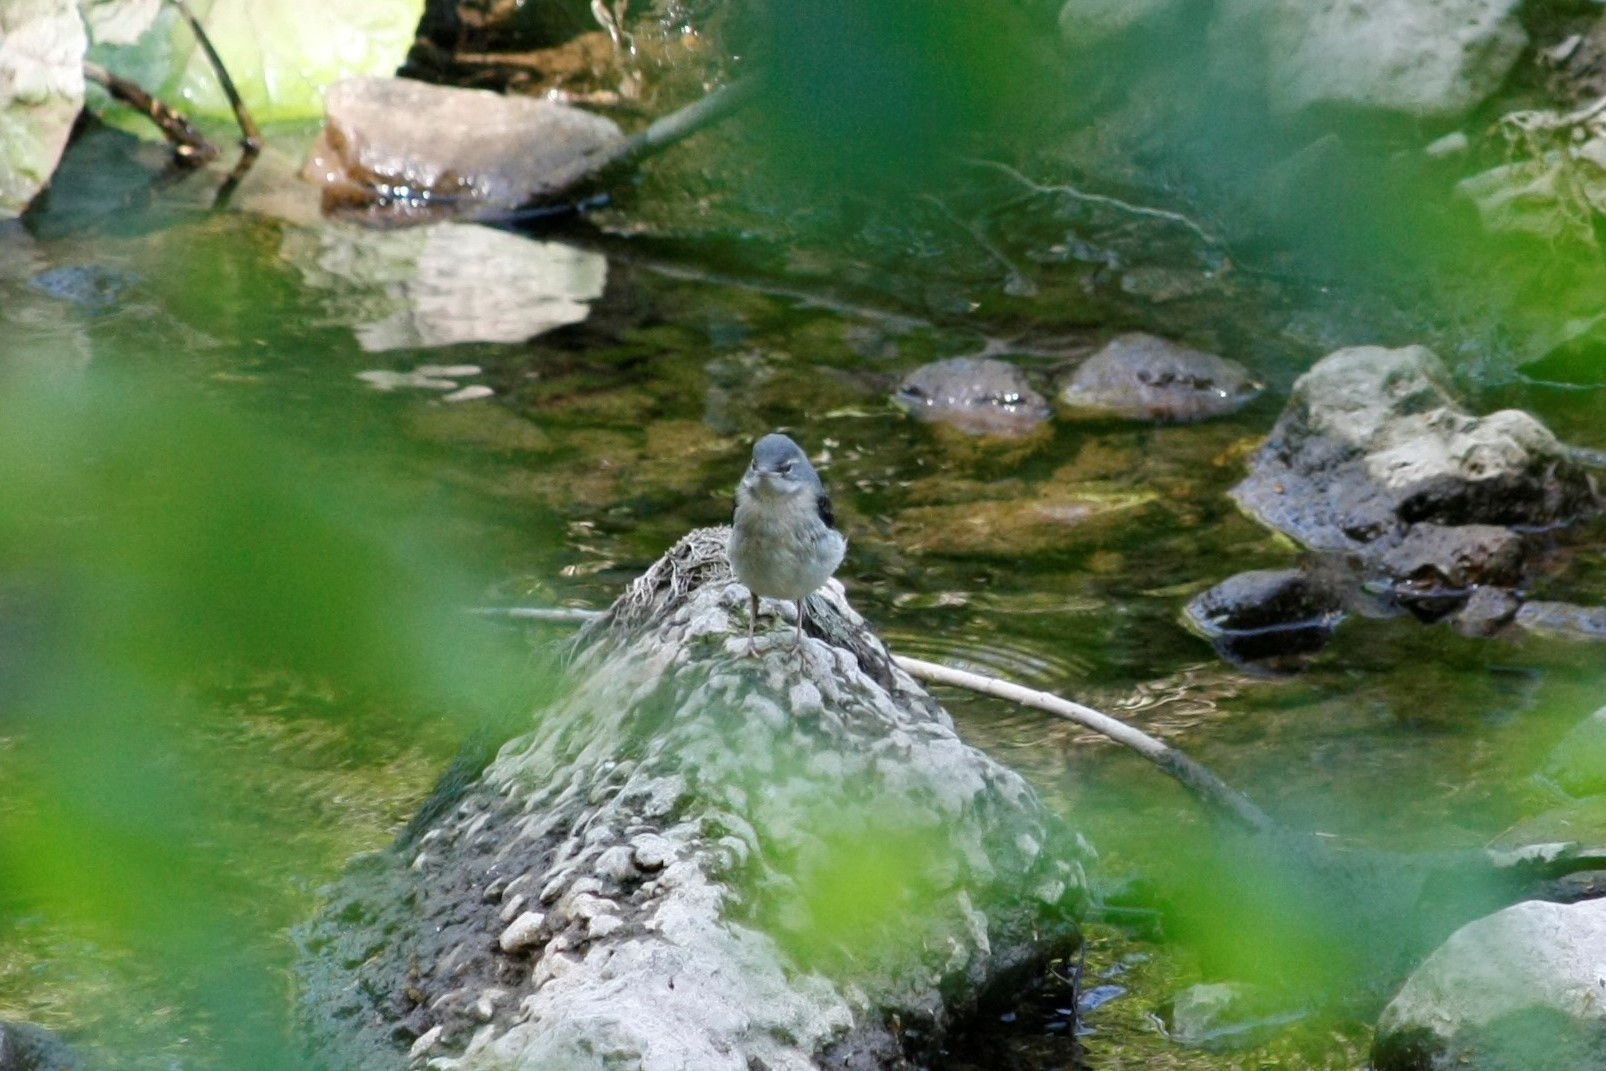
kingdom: Animalia
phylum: Chordata
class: Aves
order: Passeriformes
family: Motacillidae
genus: Motacilla
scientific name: Motacilla cinerea
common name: Grey wagtail
